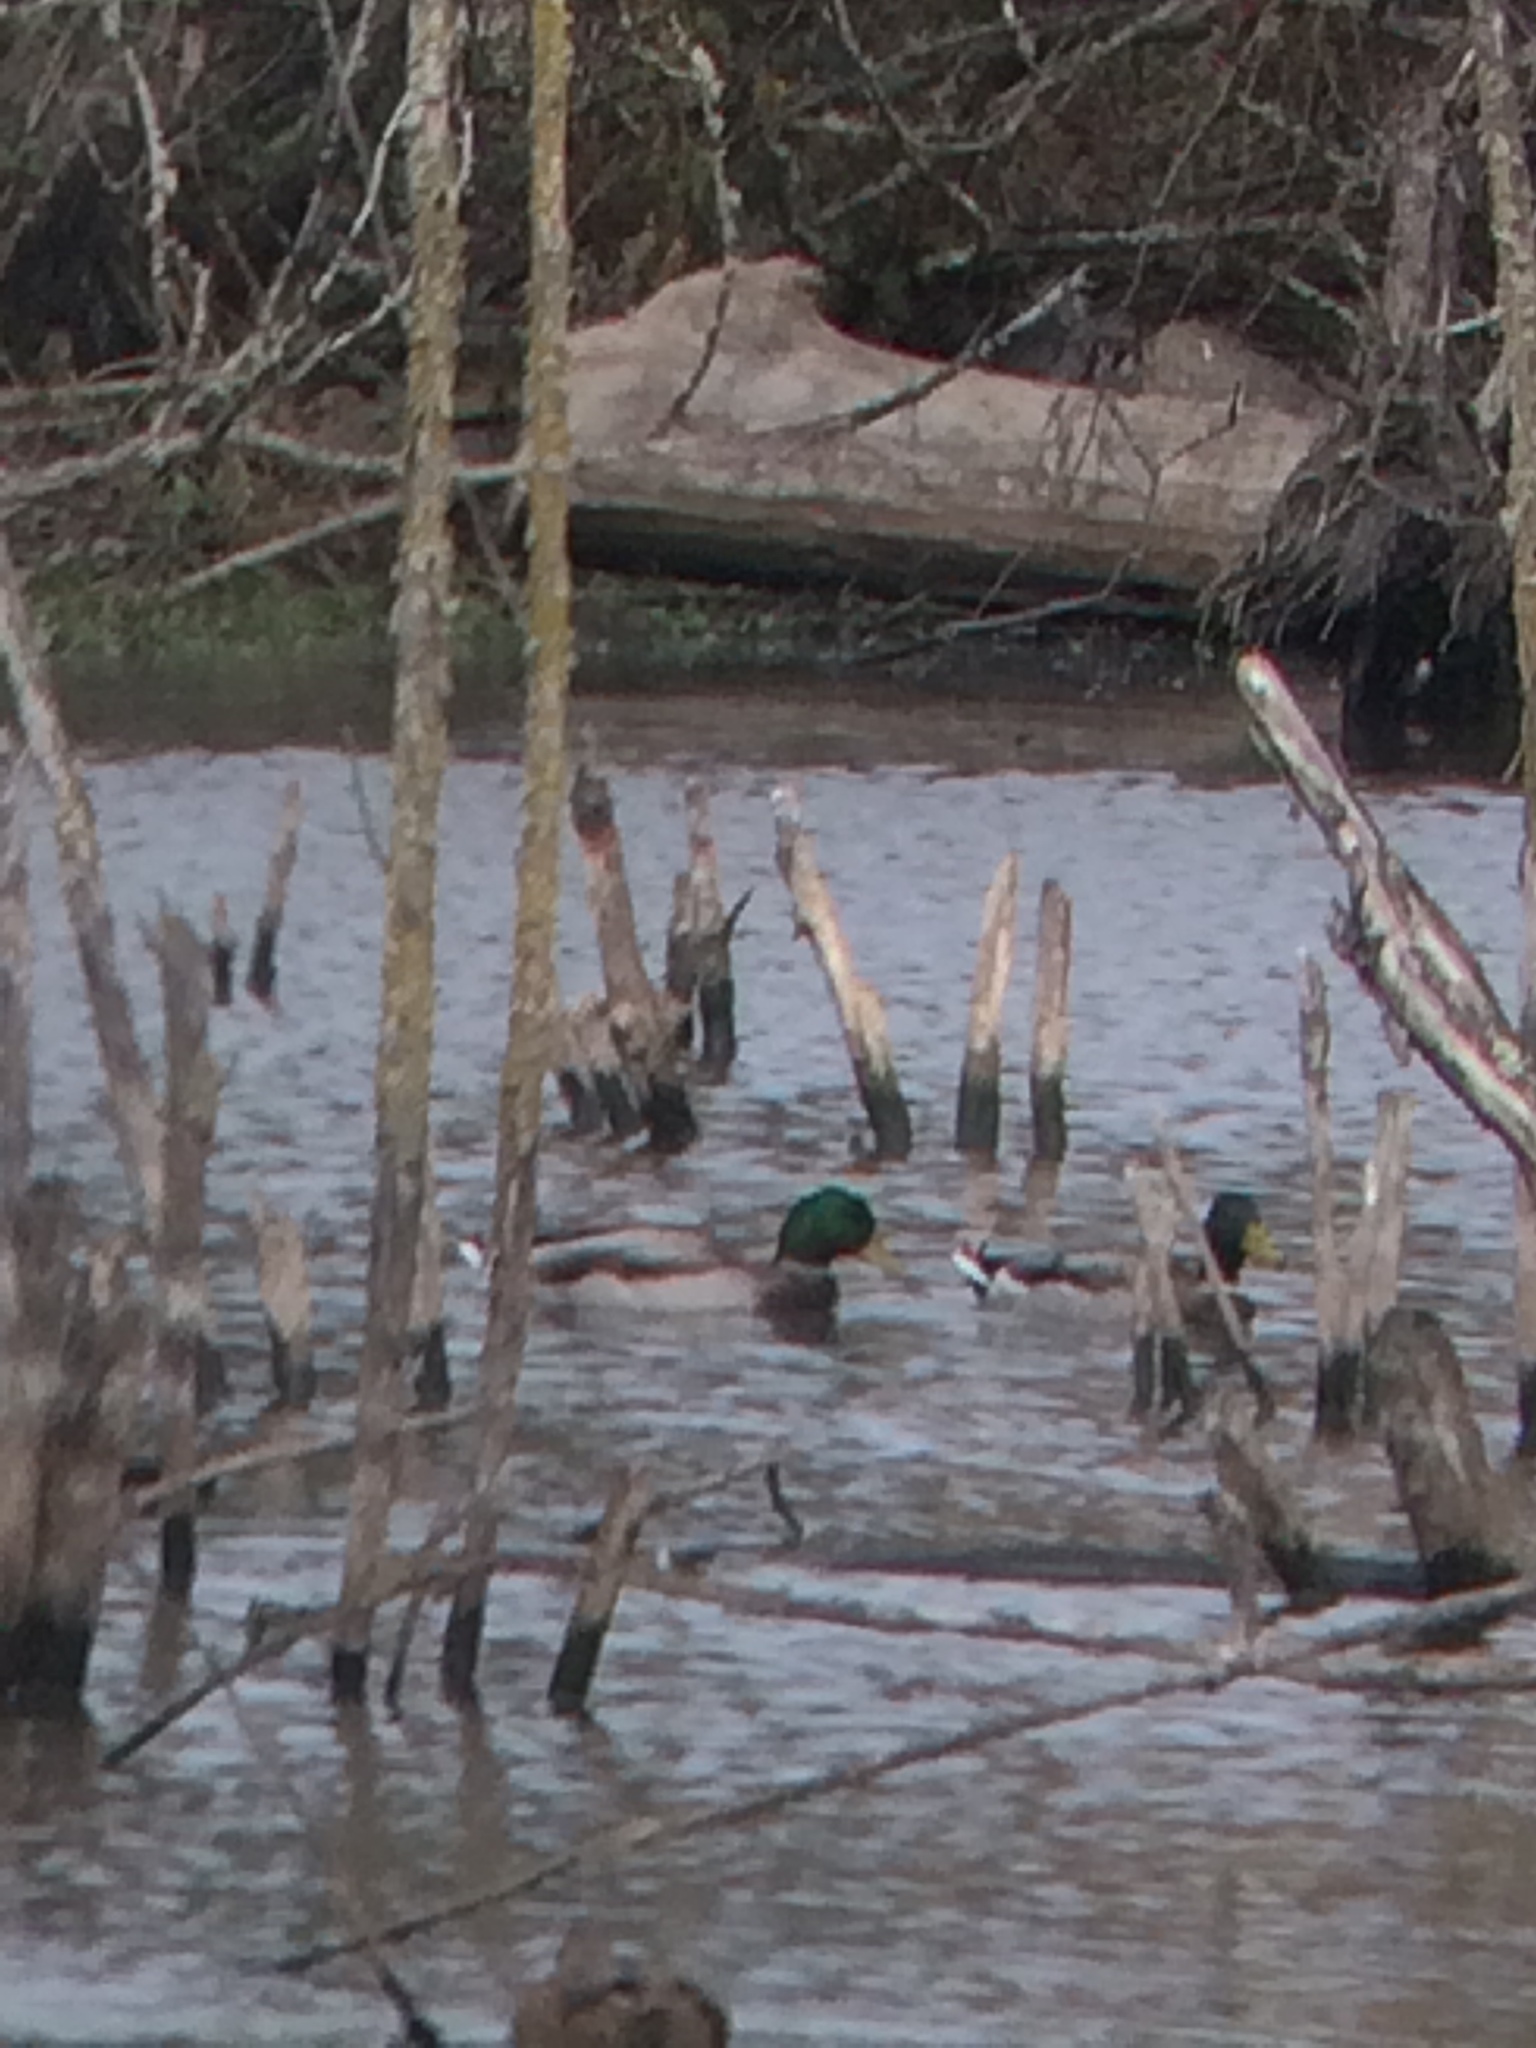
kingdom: Animalia
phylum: Chordata
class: Aves
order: Anseriformes
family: Anatidae
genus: Anas
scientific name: Anas platyrhynchos
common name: Mallard
